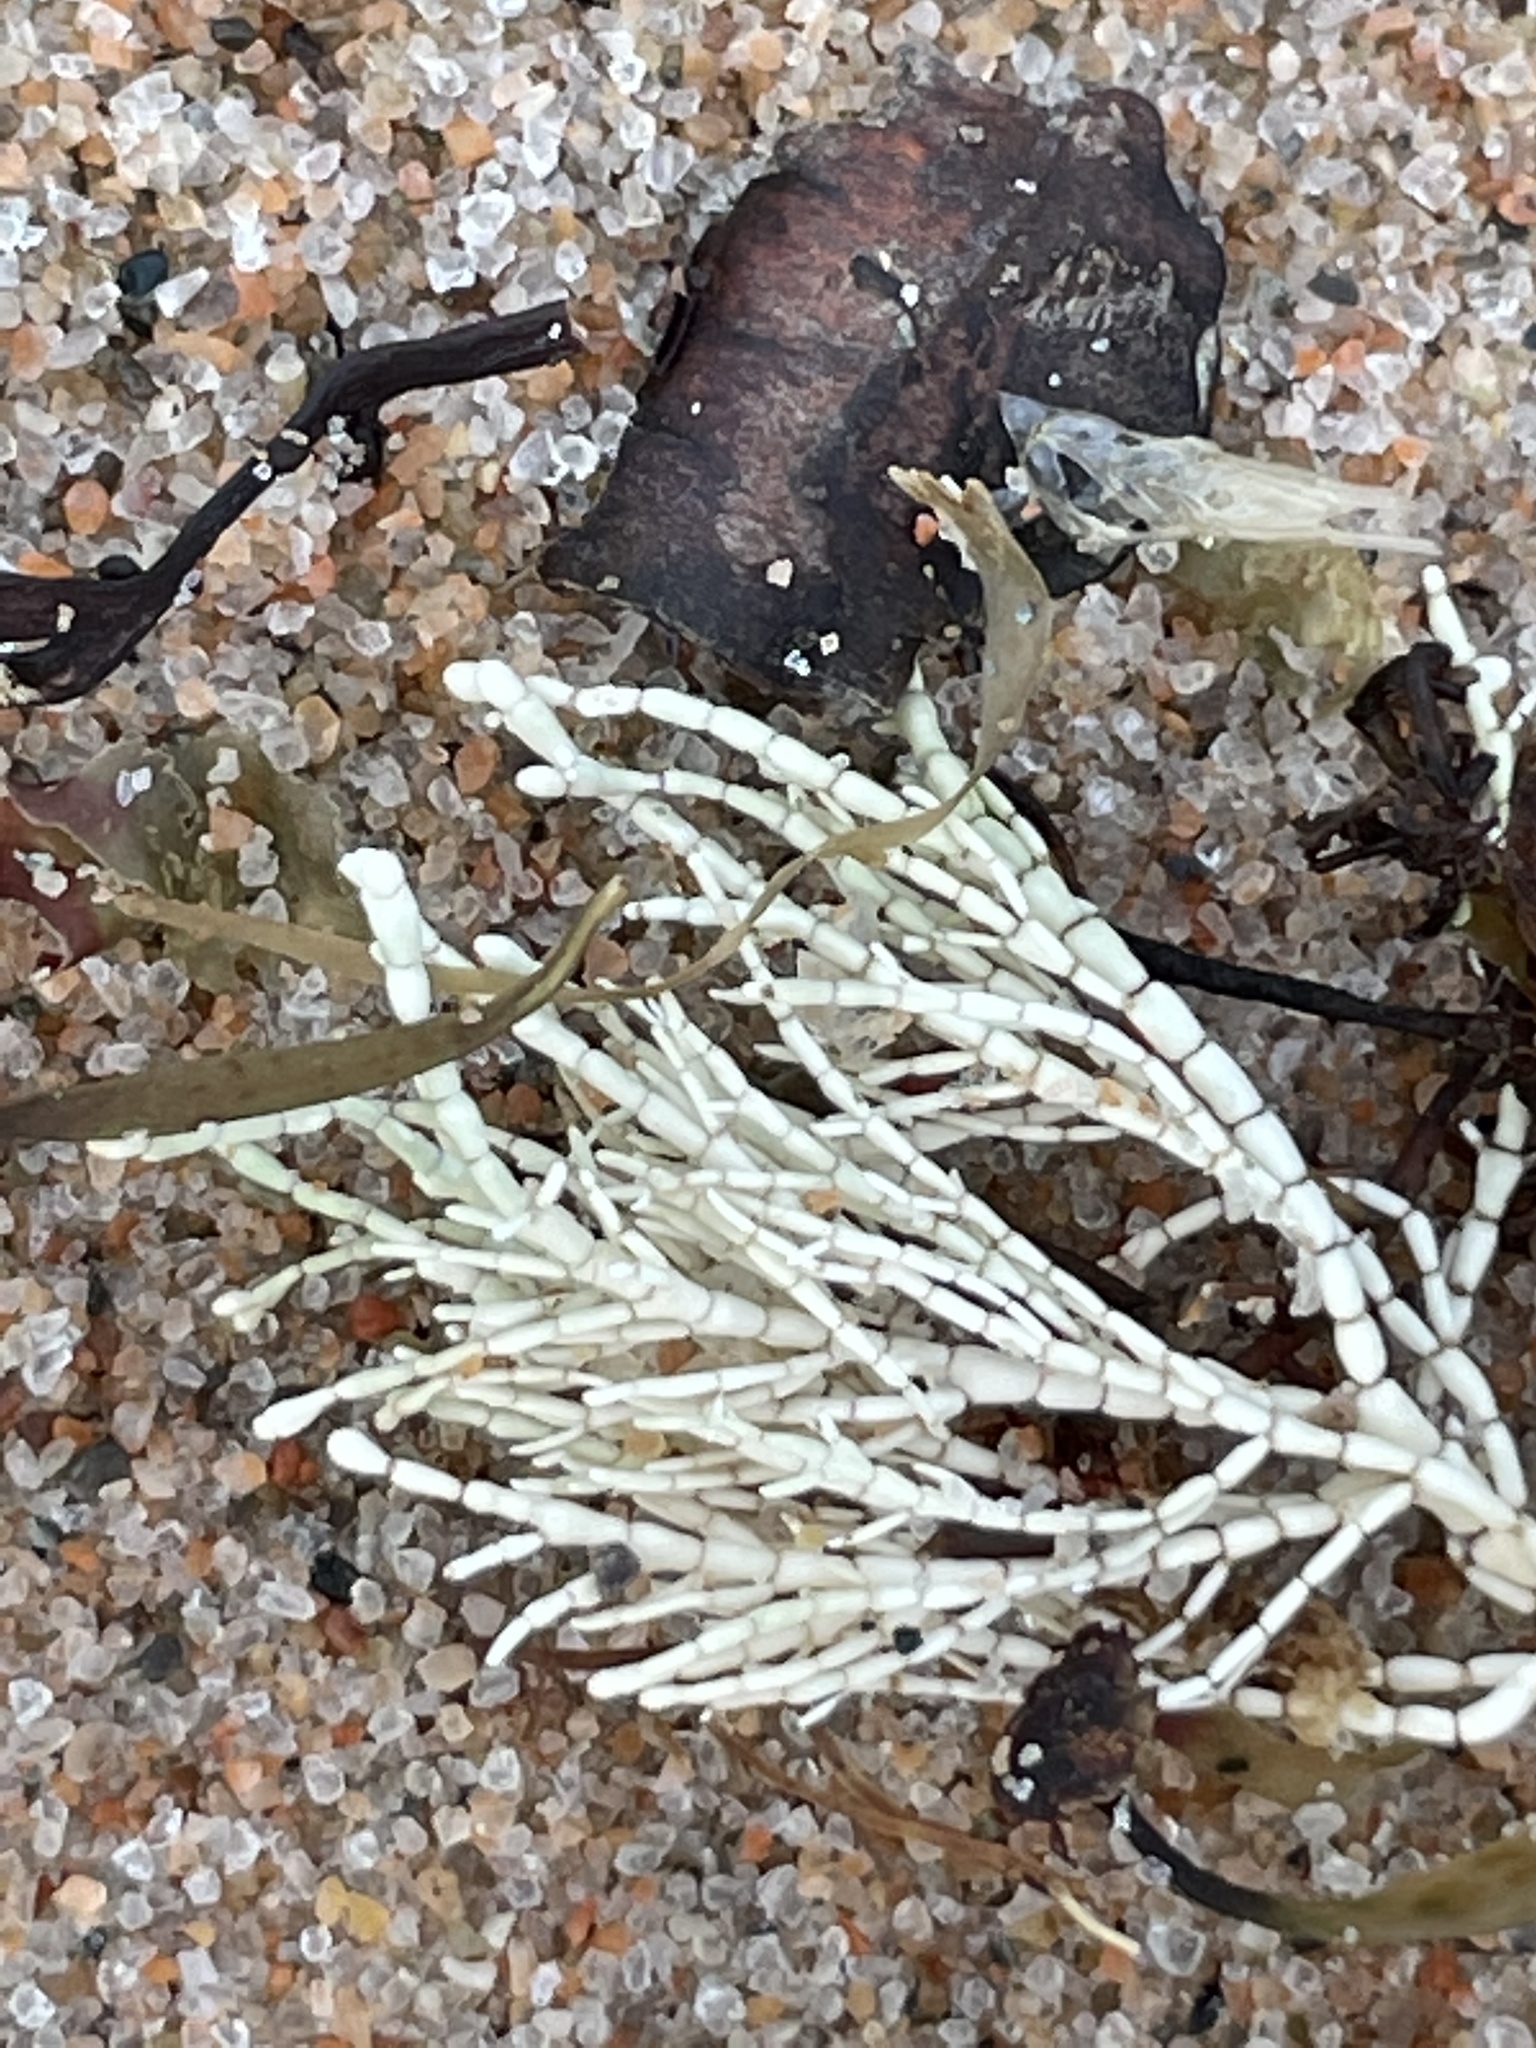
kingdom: Plantae
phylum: Rhodophyta
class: Florideophyceae
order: Corallinales
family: Corallinaceae
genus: Corallina
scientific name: Corallina officinalis
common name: Coral weed
